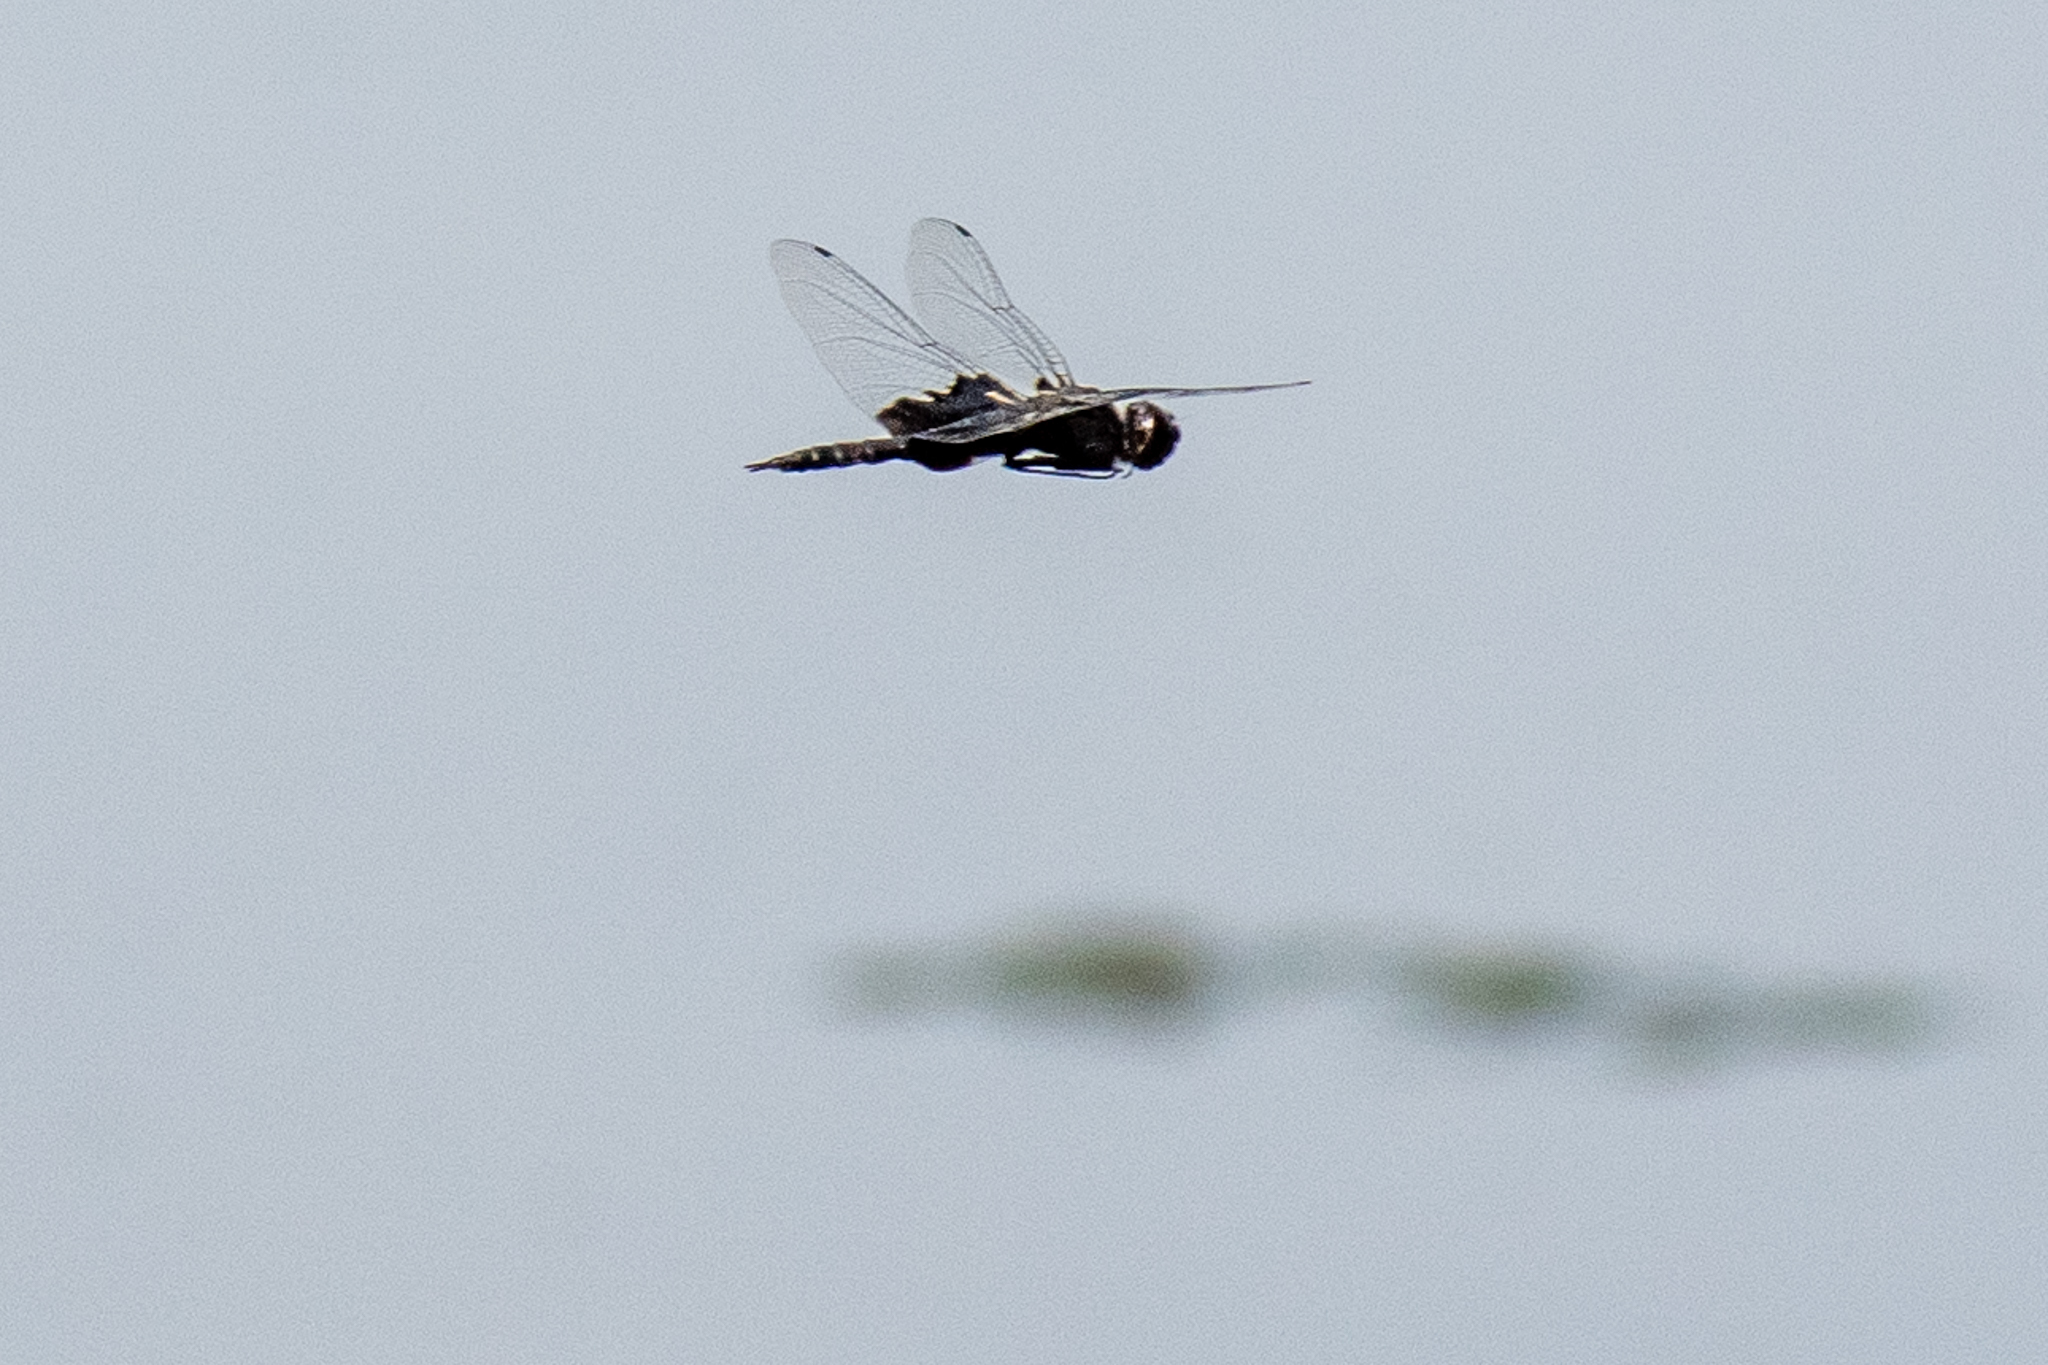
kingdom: Animalia
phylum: Arthropoda
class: Insecta
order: Odonata
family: Libellulidae
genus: Tramea
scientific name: Tramea lacerata
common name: Black saddlebags
